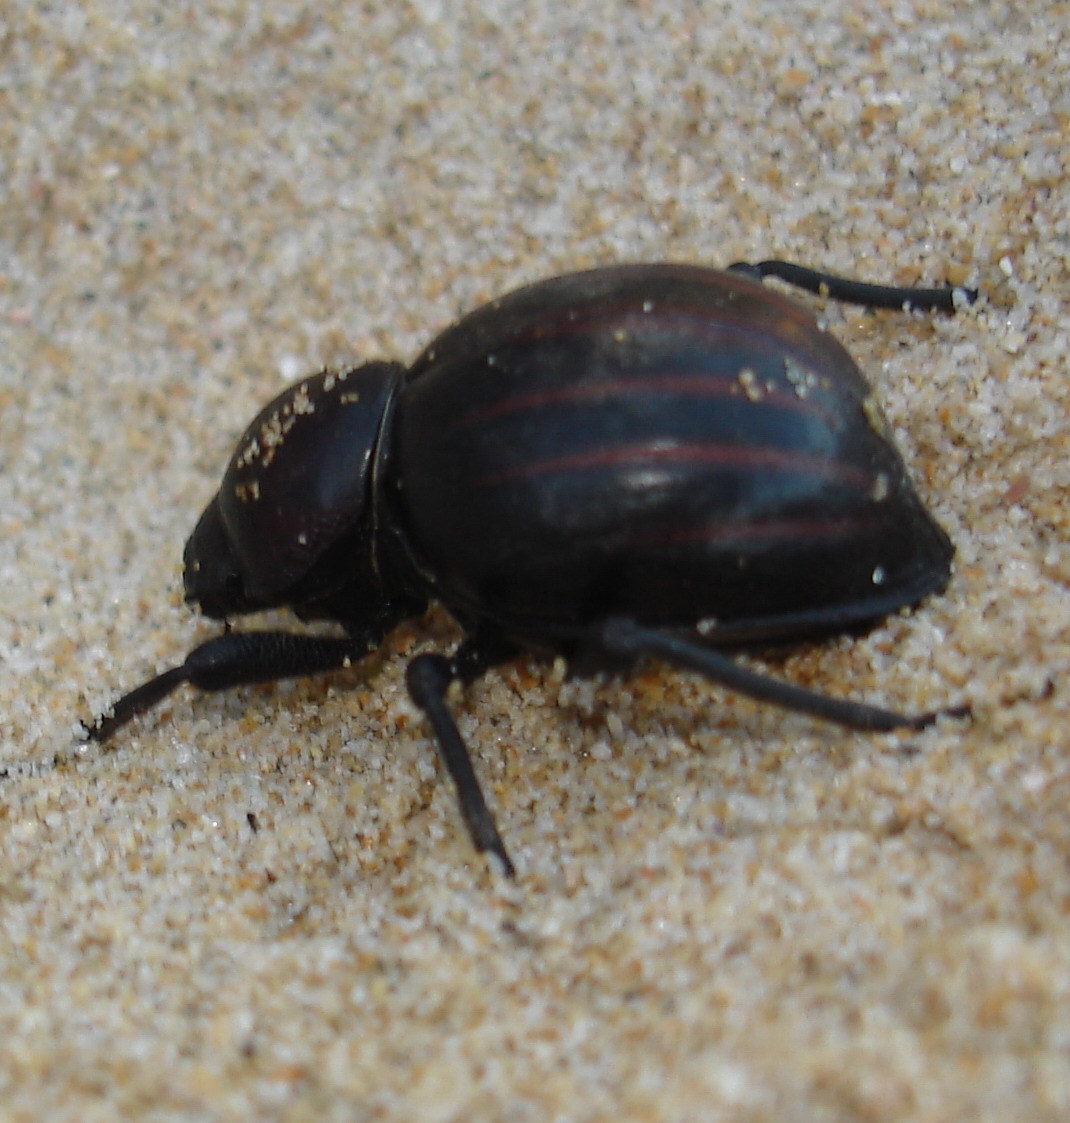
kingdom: Animalia
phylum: Arthropoda
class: Insecta
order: Coleoptera
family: Tenebrionidae
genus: Mariazofia
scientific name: Mariazofia
